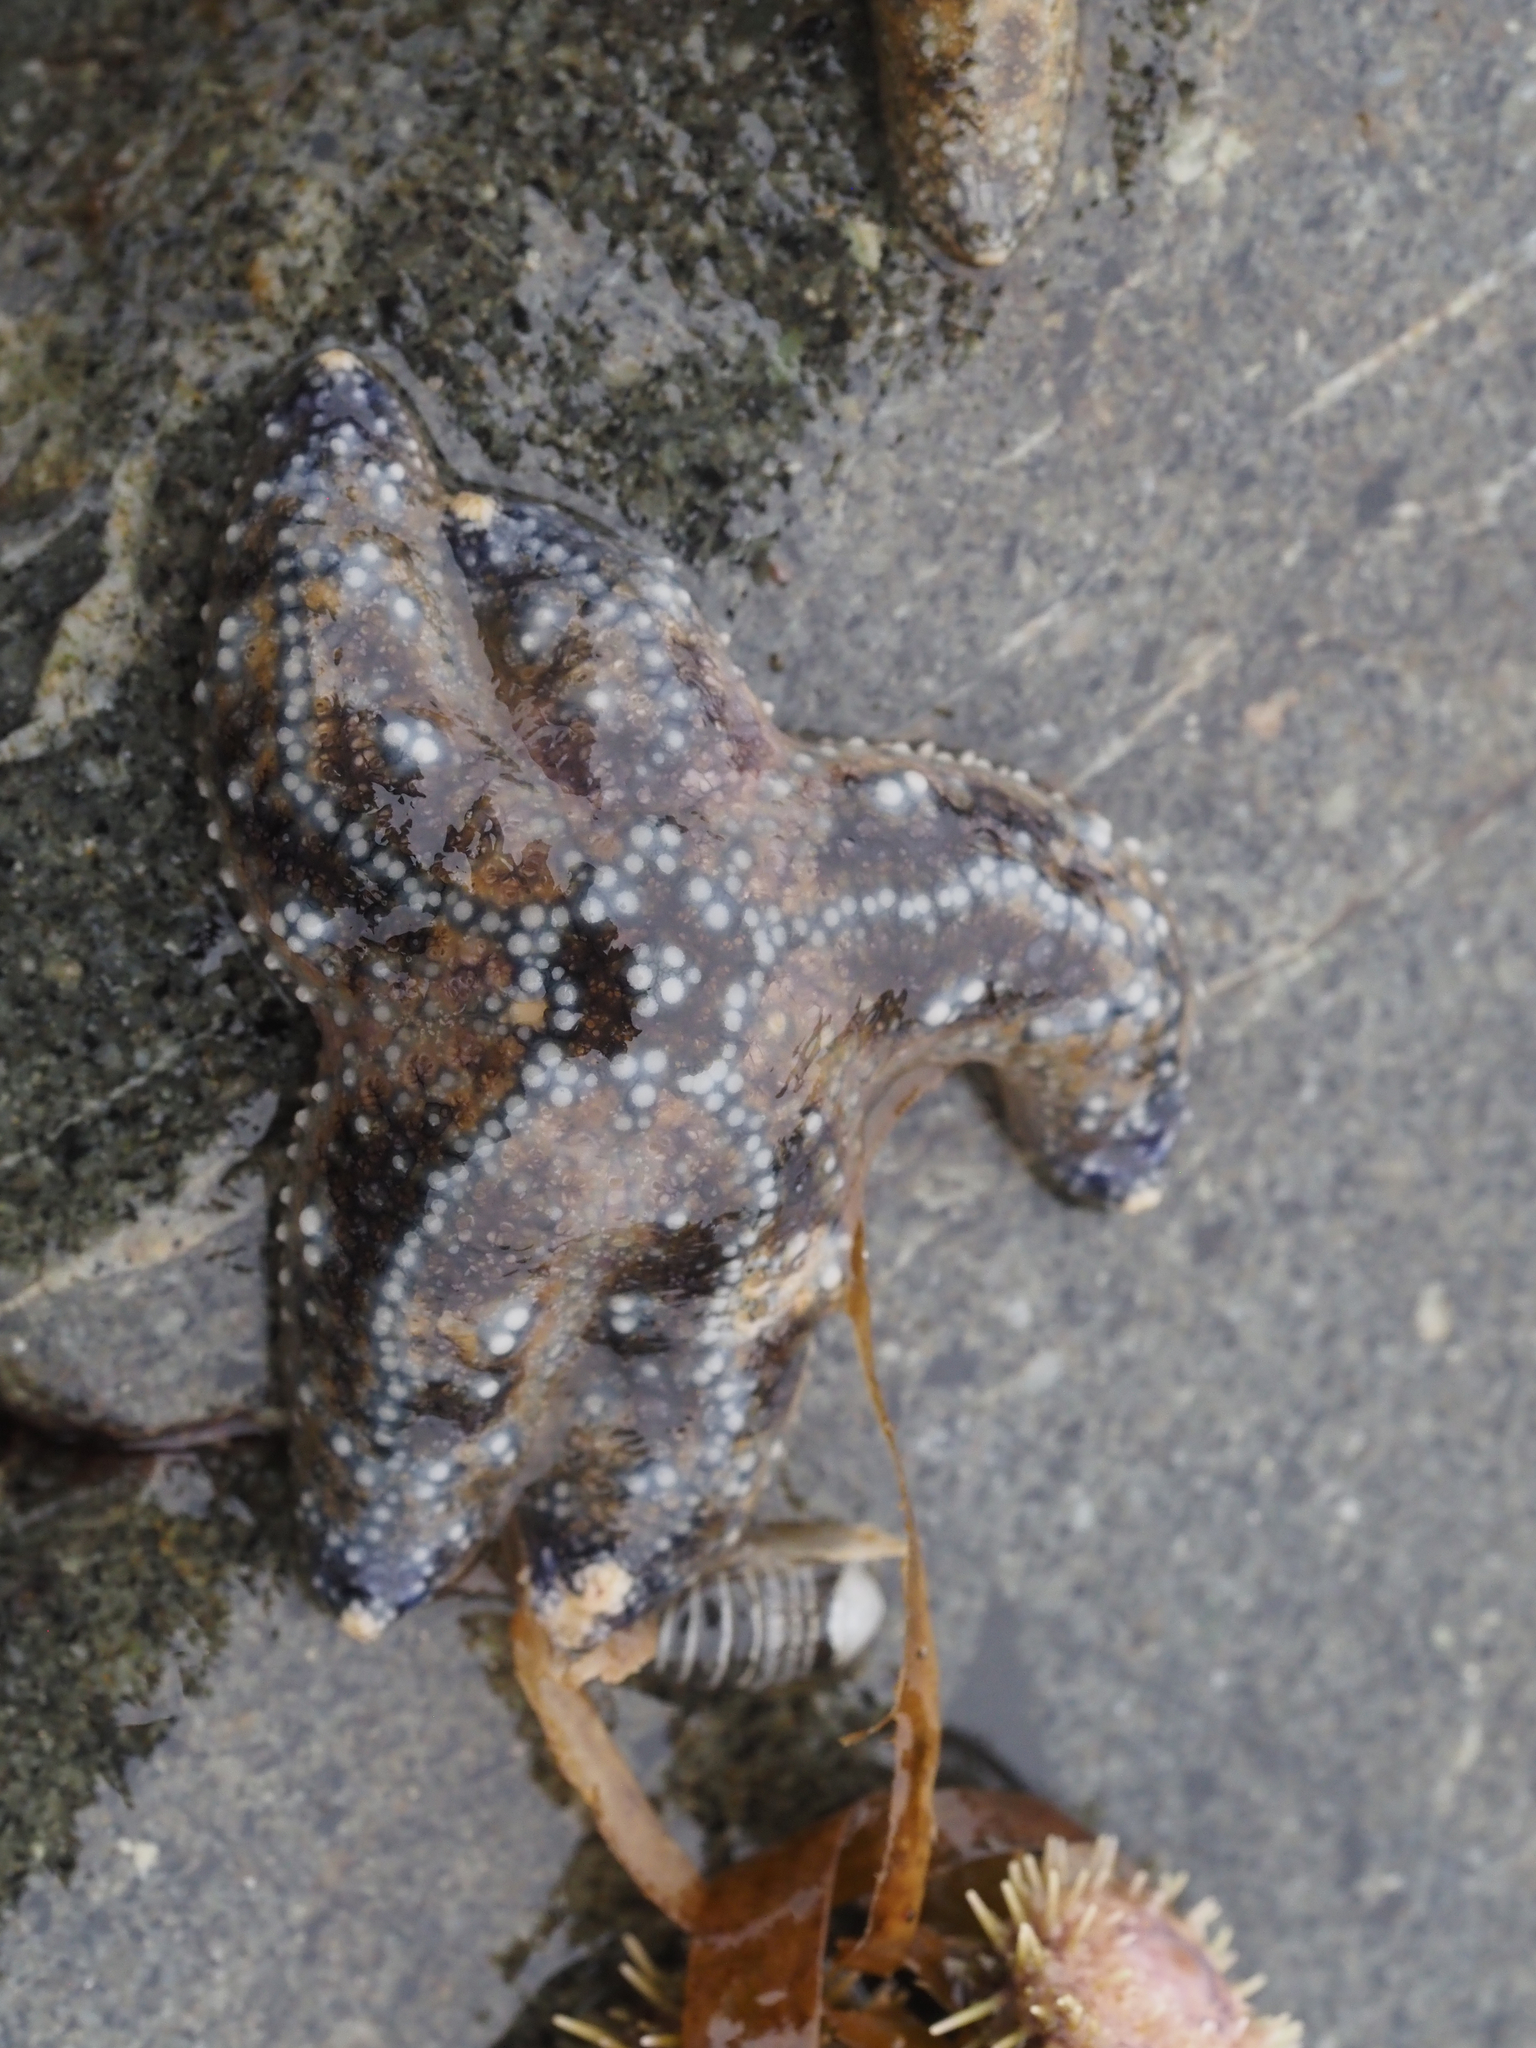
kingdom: Animalia
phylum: Echinodermata
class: Asteroidea
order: Forcipulatida
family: Asteriidae
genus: Pisaster
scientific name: Pisaster ochraceus
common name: Ochre stars
